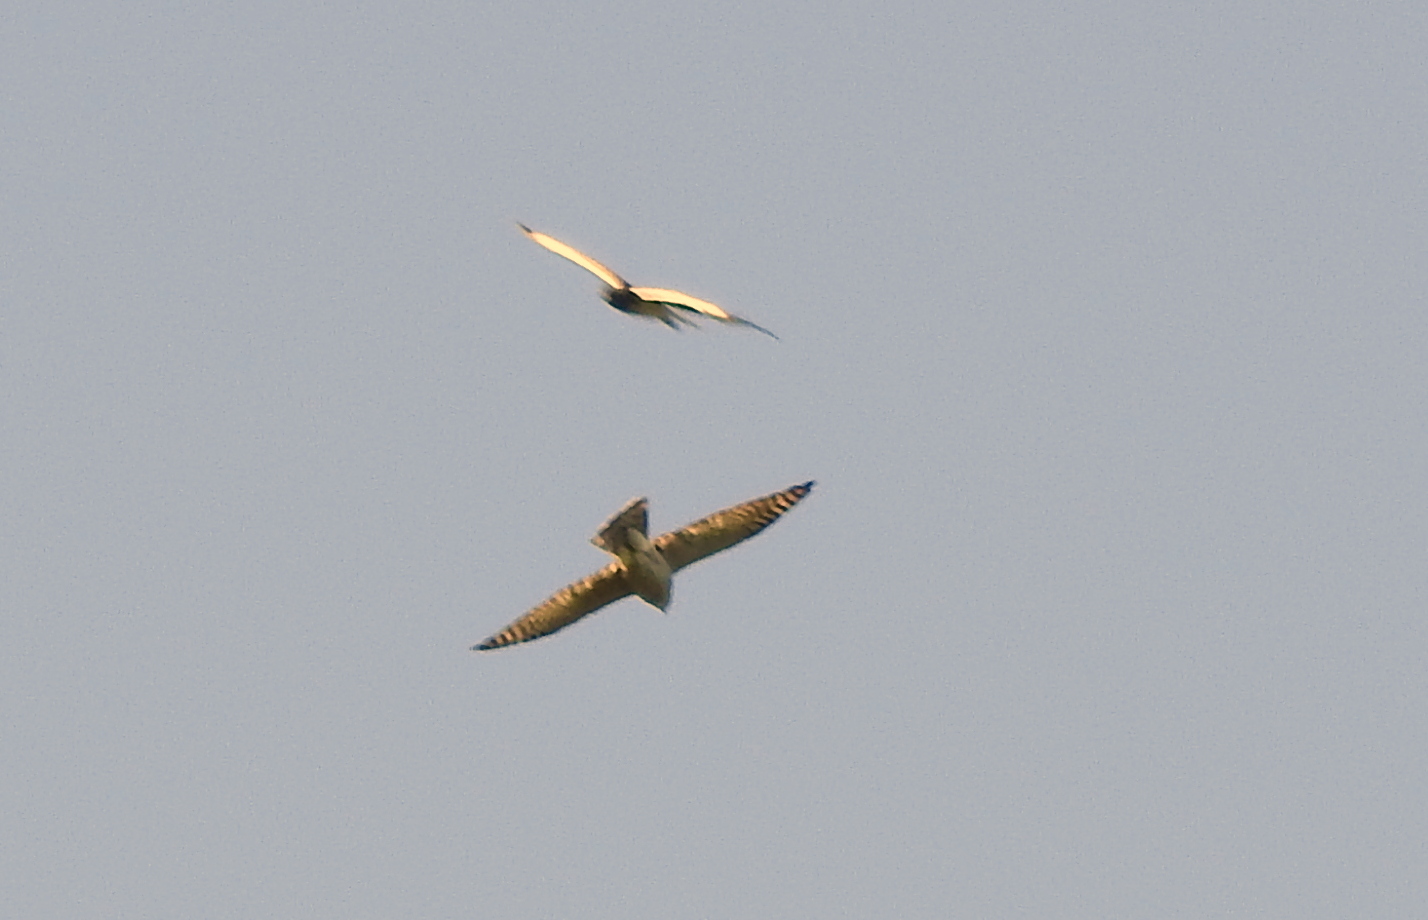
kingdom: Animalia
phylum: Chordata
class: Aves
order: Accipitriformes
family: Accipitridae
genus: Accipiter
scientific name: Accipiter nisus
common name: Eurasian sparrowhawk
